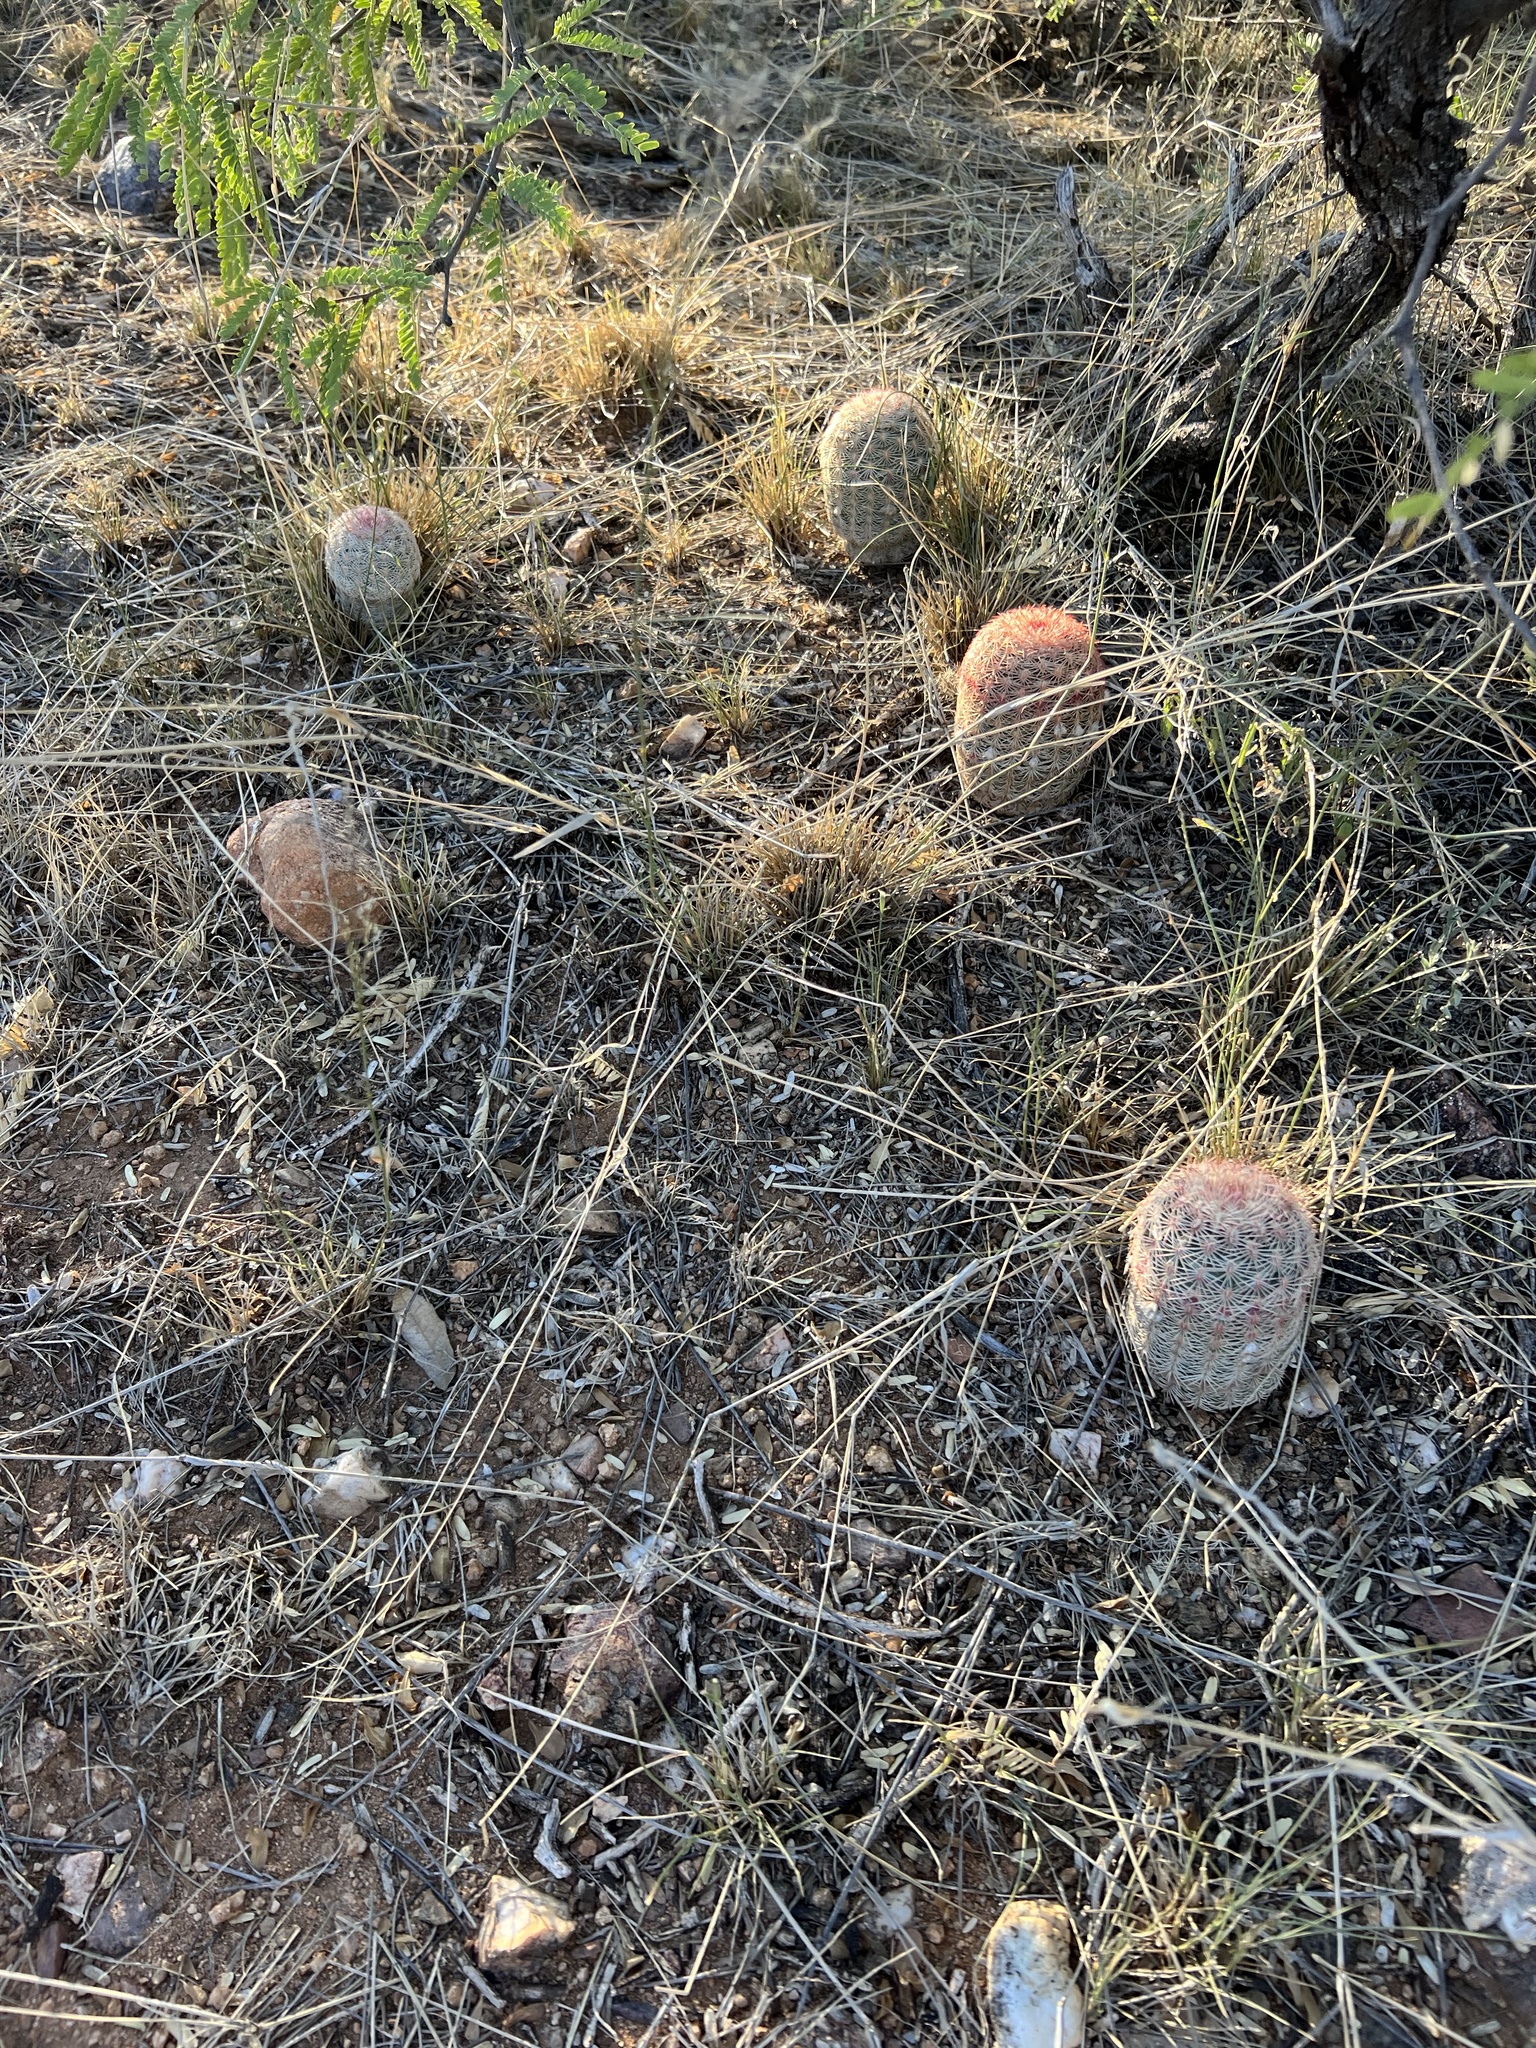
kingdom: Plantae
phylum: Tracheophyta
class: Magnoliopsida
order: Caryophyllales
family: Cactaceae
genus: Echinocereus
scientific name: Echinocereus rigidissimus
